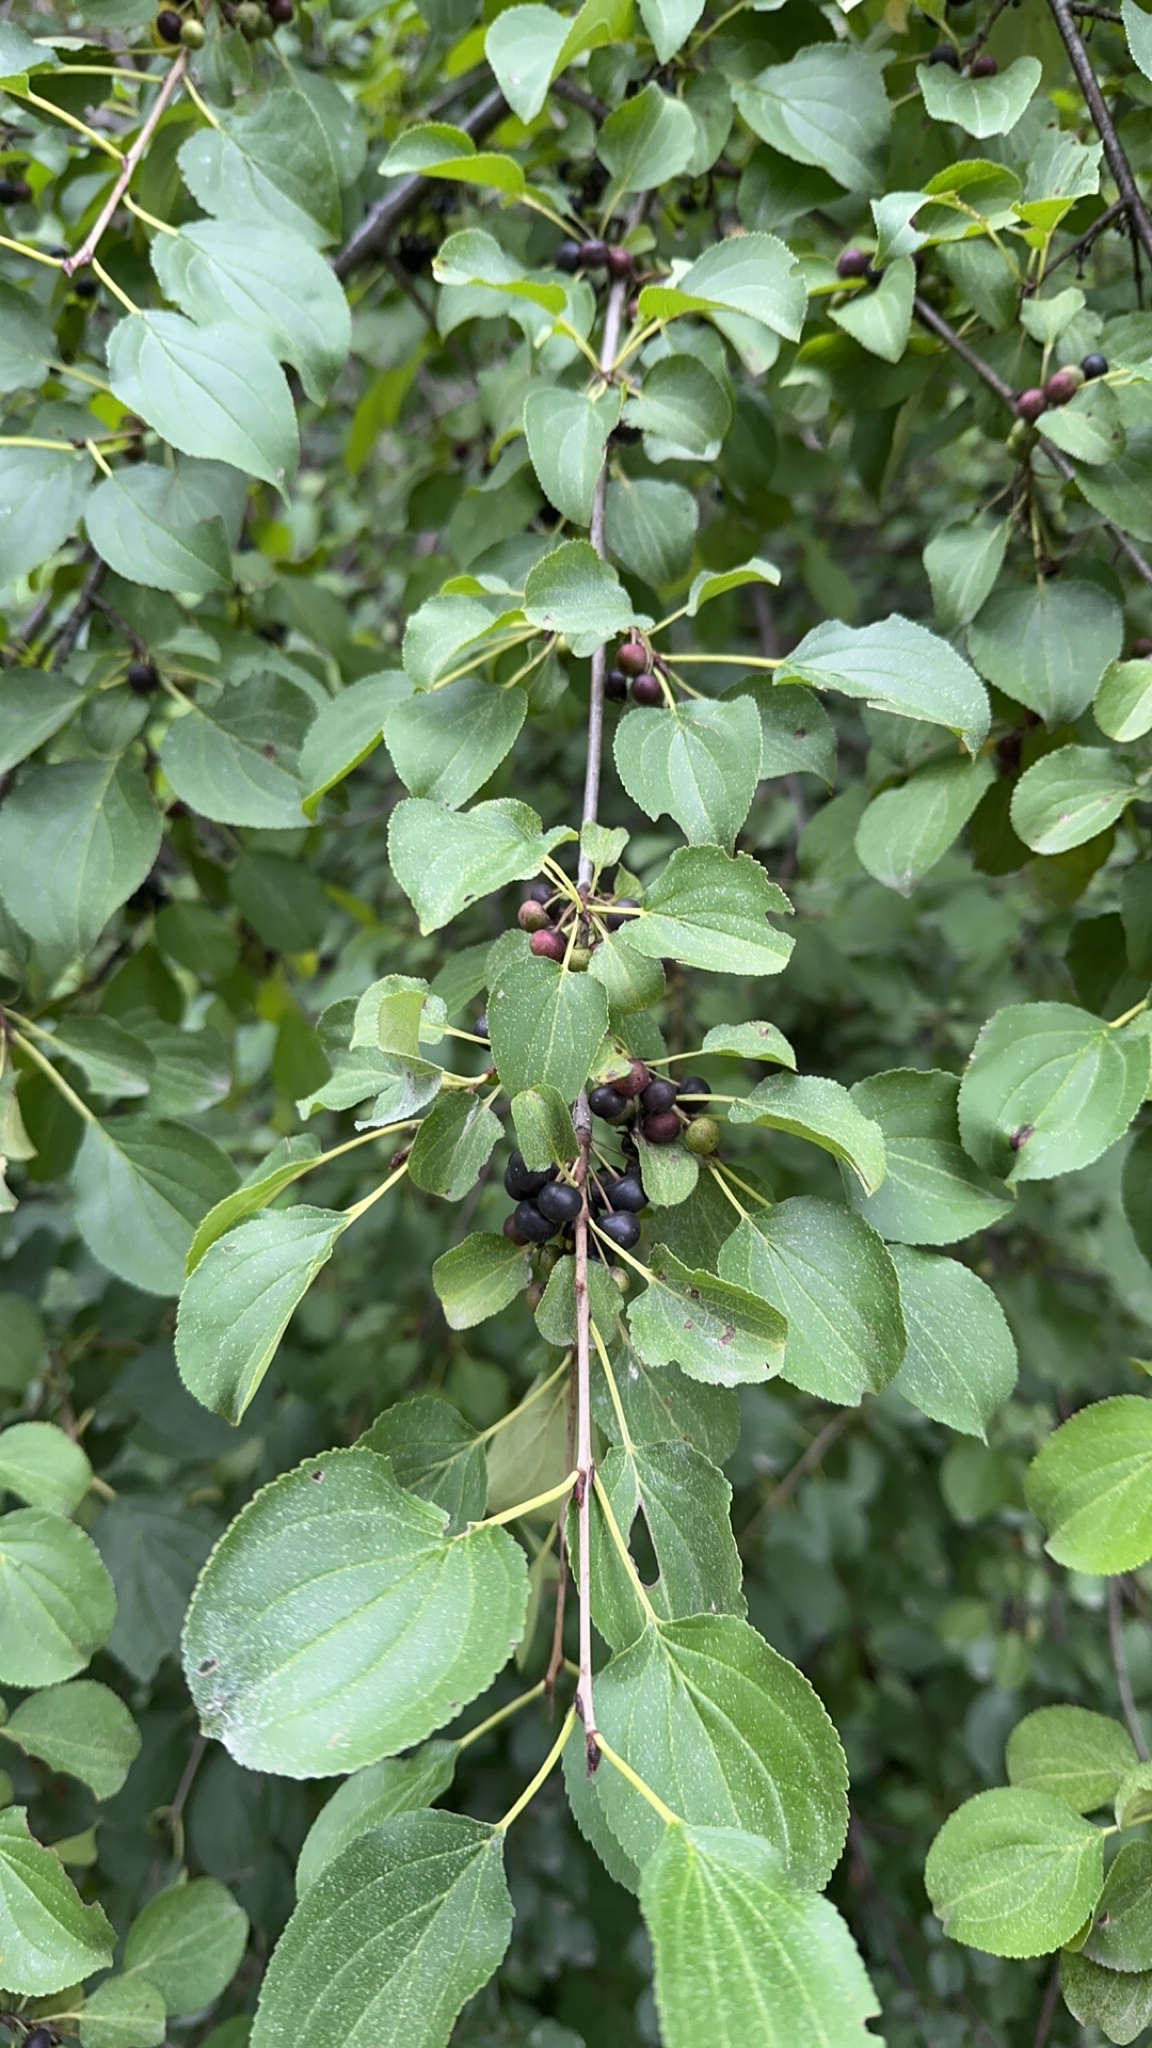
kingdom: Plantae
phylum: Tracheophyta
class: Magnoliopsida
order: Rosales
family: Rhamnaceae
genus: Rhamnus
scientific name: Rhamnus cathartica
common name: Common buckthorn
